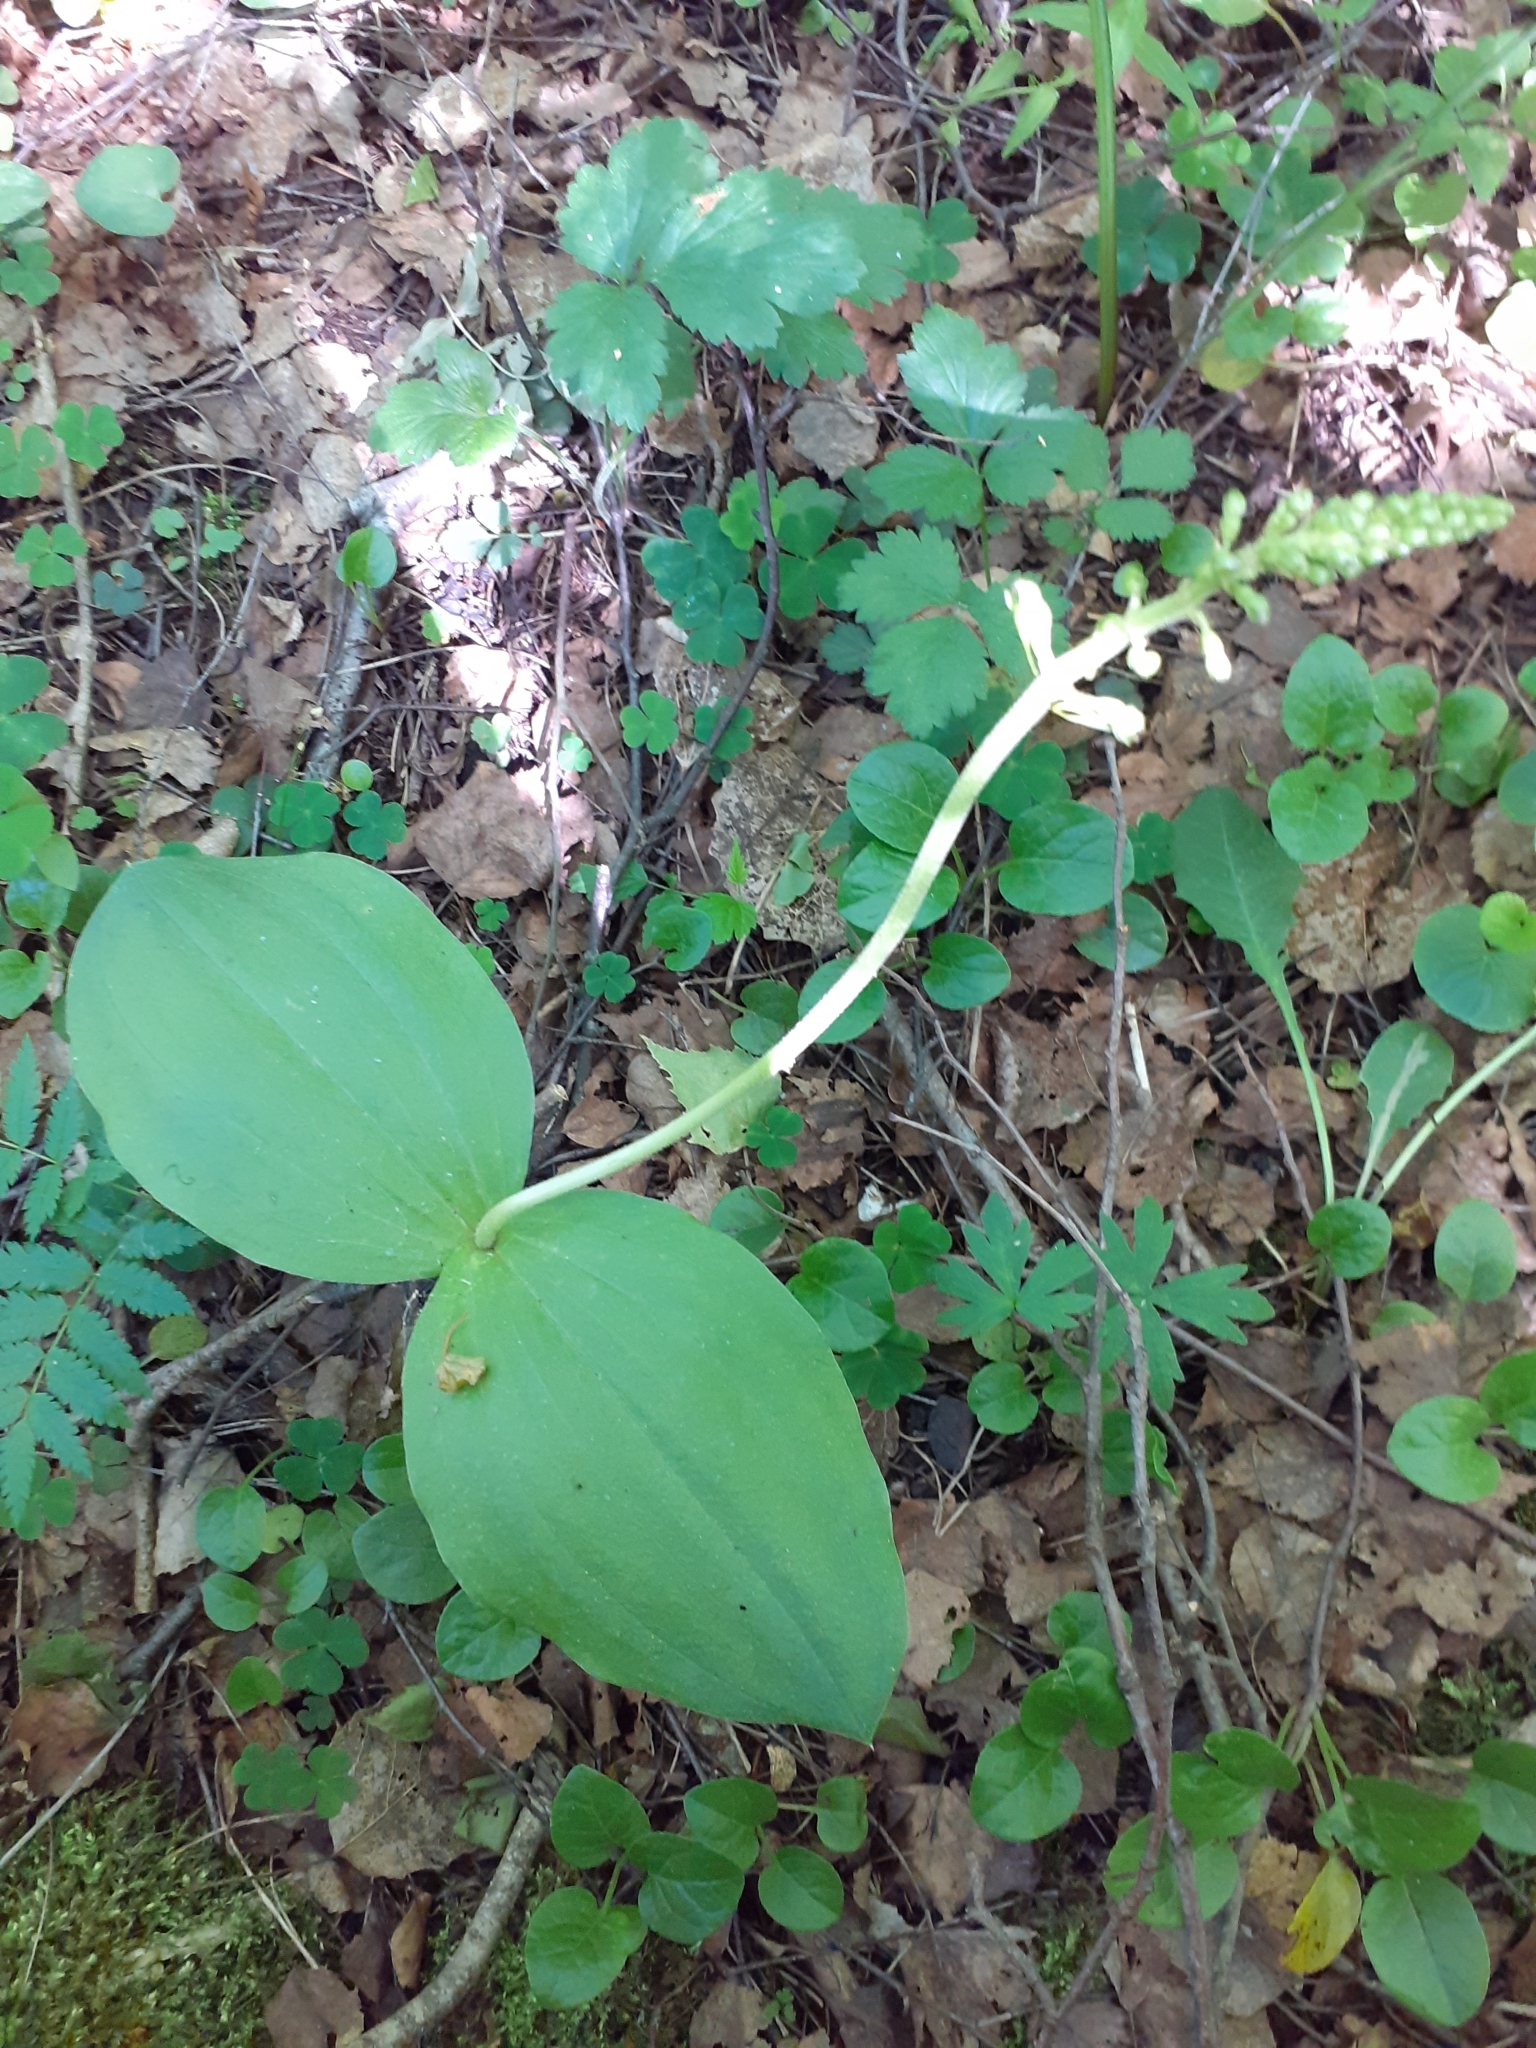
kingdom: Plantae
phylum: Tracheophyta
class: Liliopsida
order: Asparagales
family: Orchidaceae
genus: Neottia
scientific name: Neottia ovata
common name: Common twayblade
